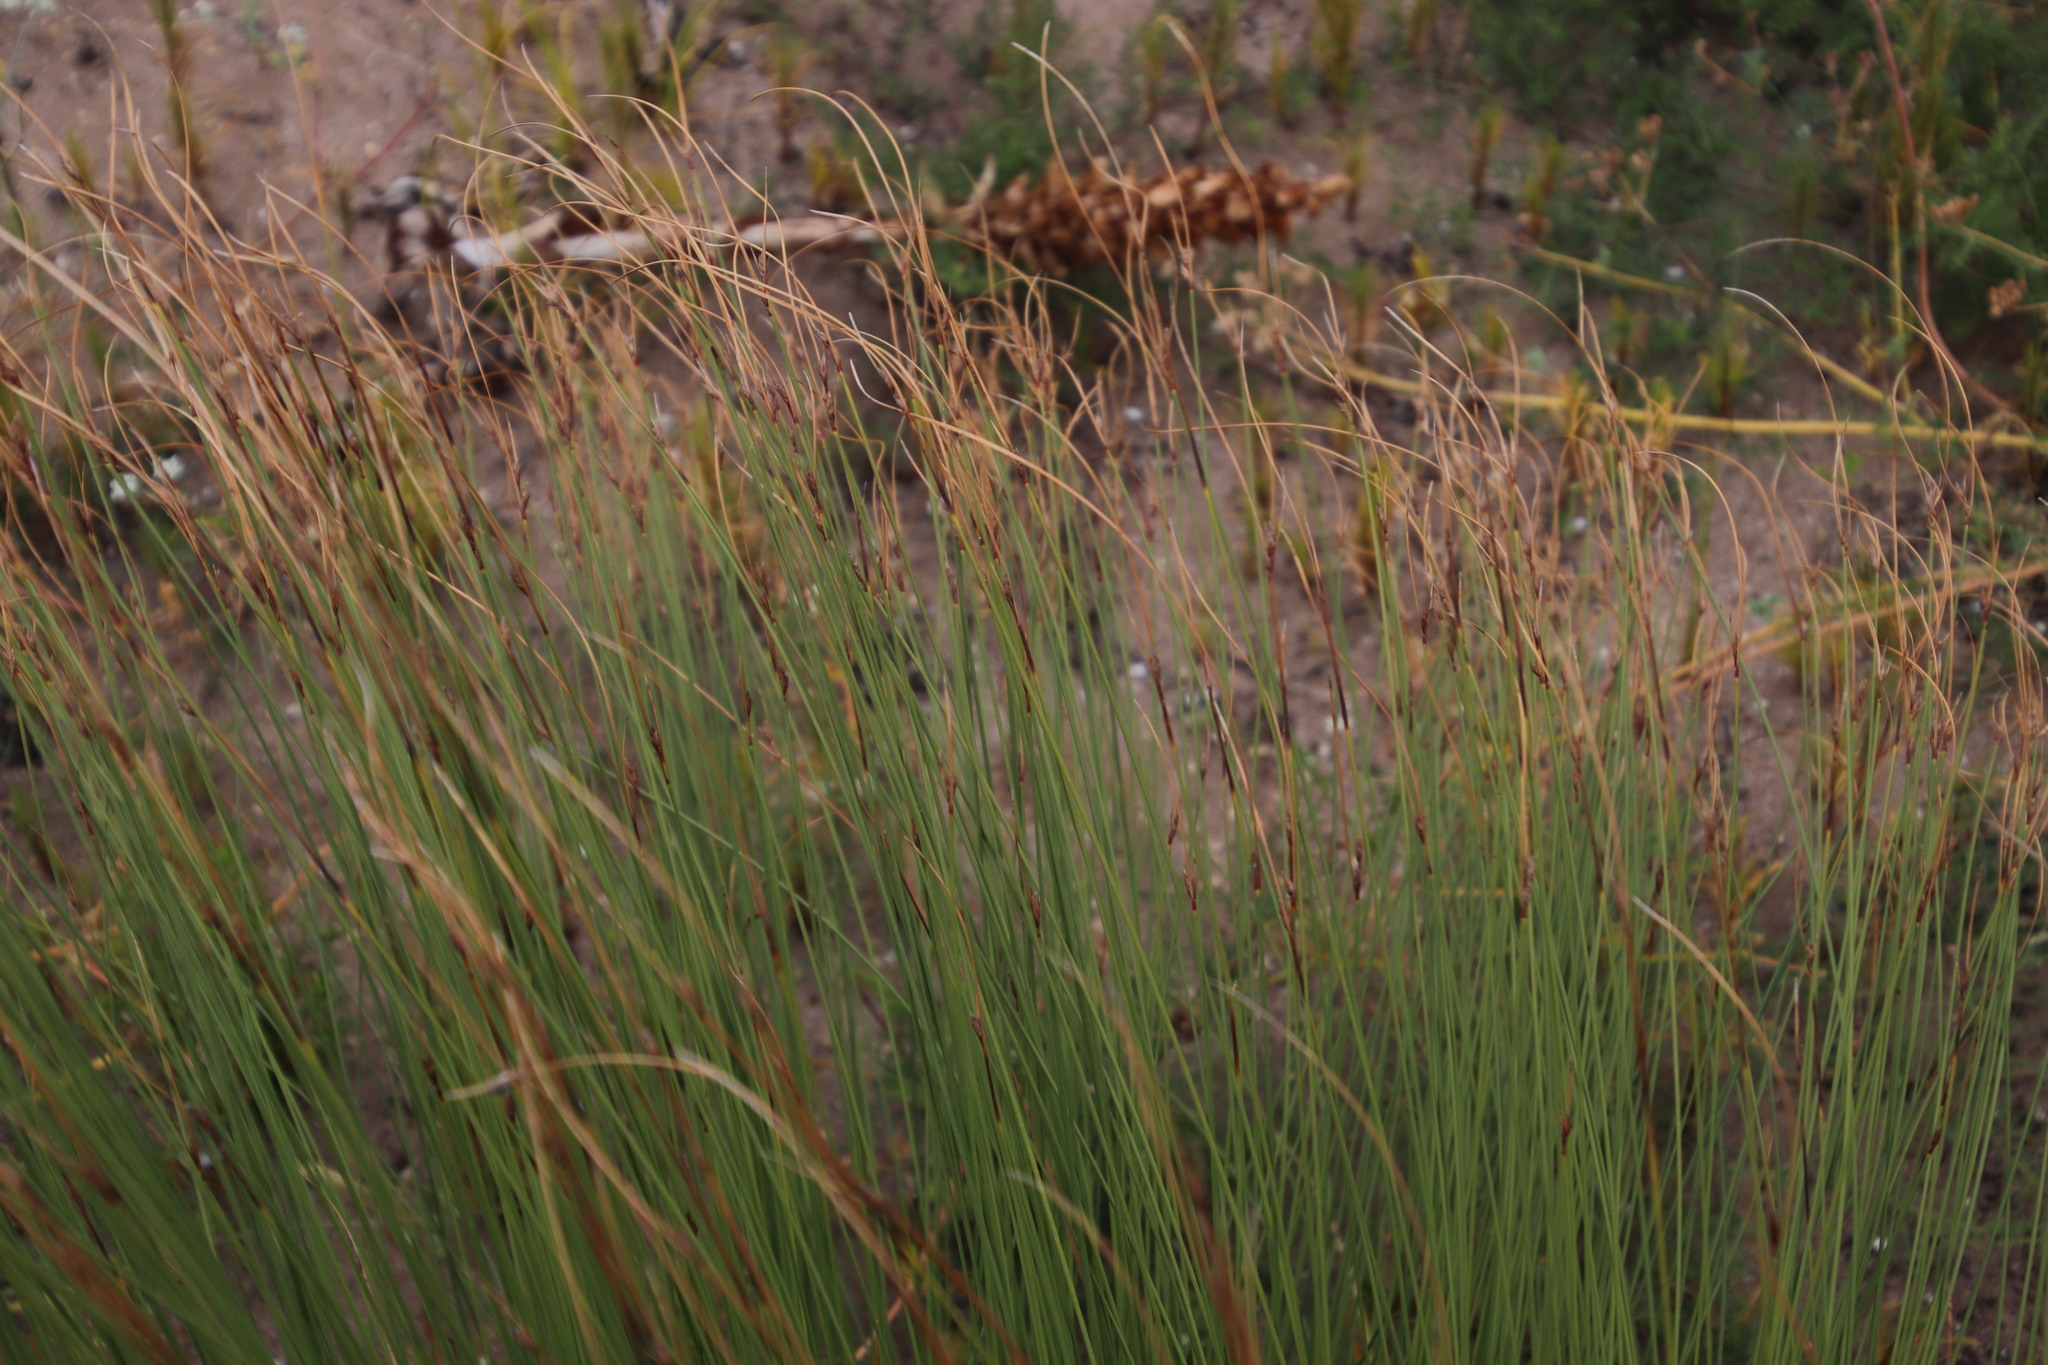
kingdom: Plantae
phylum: Tracheophyta
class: Liliopsida
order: Poales
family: Cyperaceae
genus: Schoenus
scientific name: Schoenus arenicola
